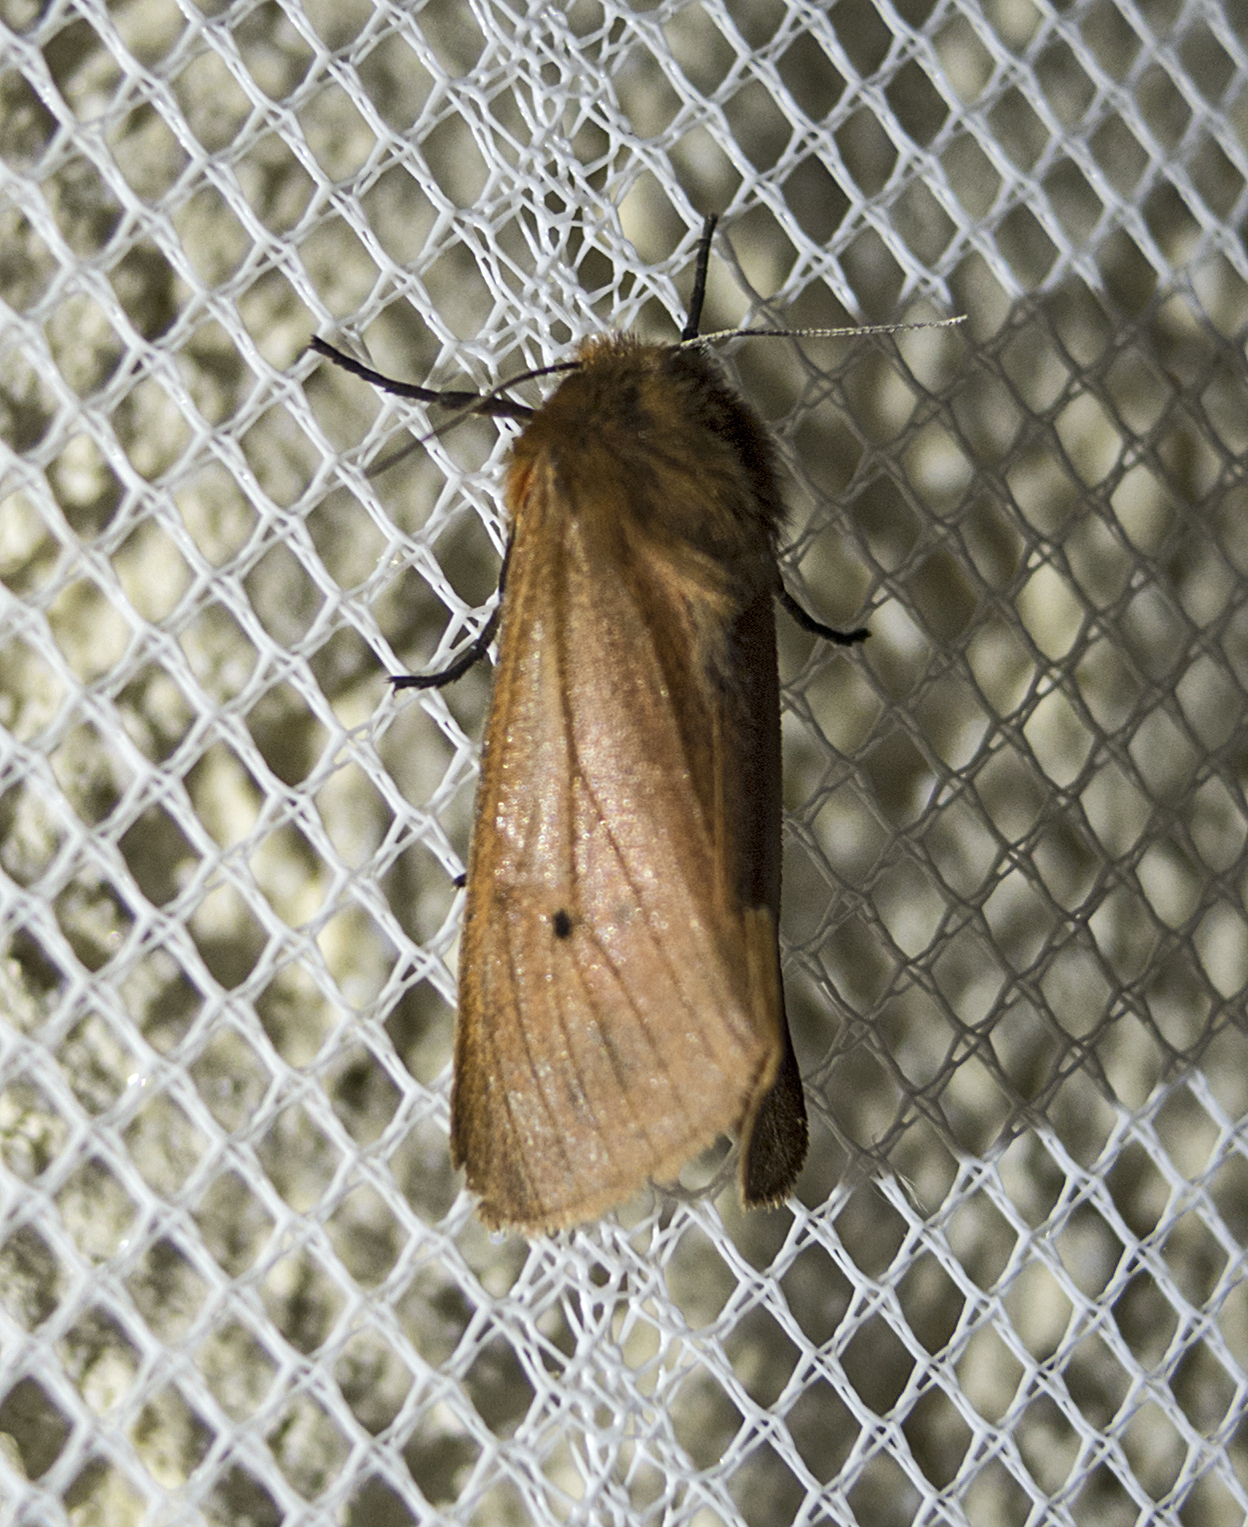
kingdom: Animalia
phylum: Arthropoda
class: Insecta
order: Lepidoptera
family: Erebidae
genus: Phragmatobia
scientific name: Phragmatobia fuliginosa
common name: Ruby tiger
